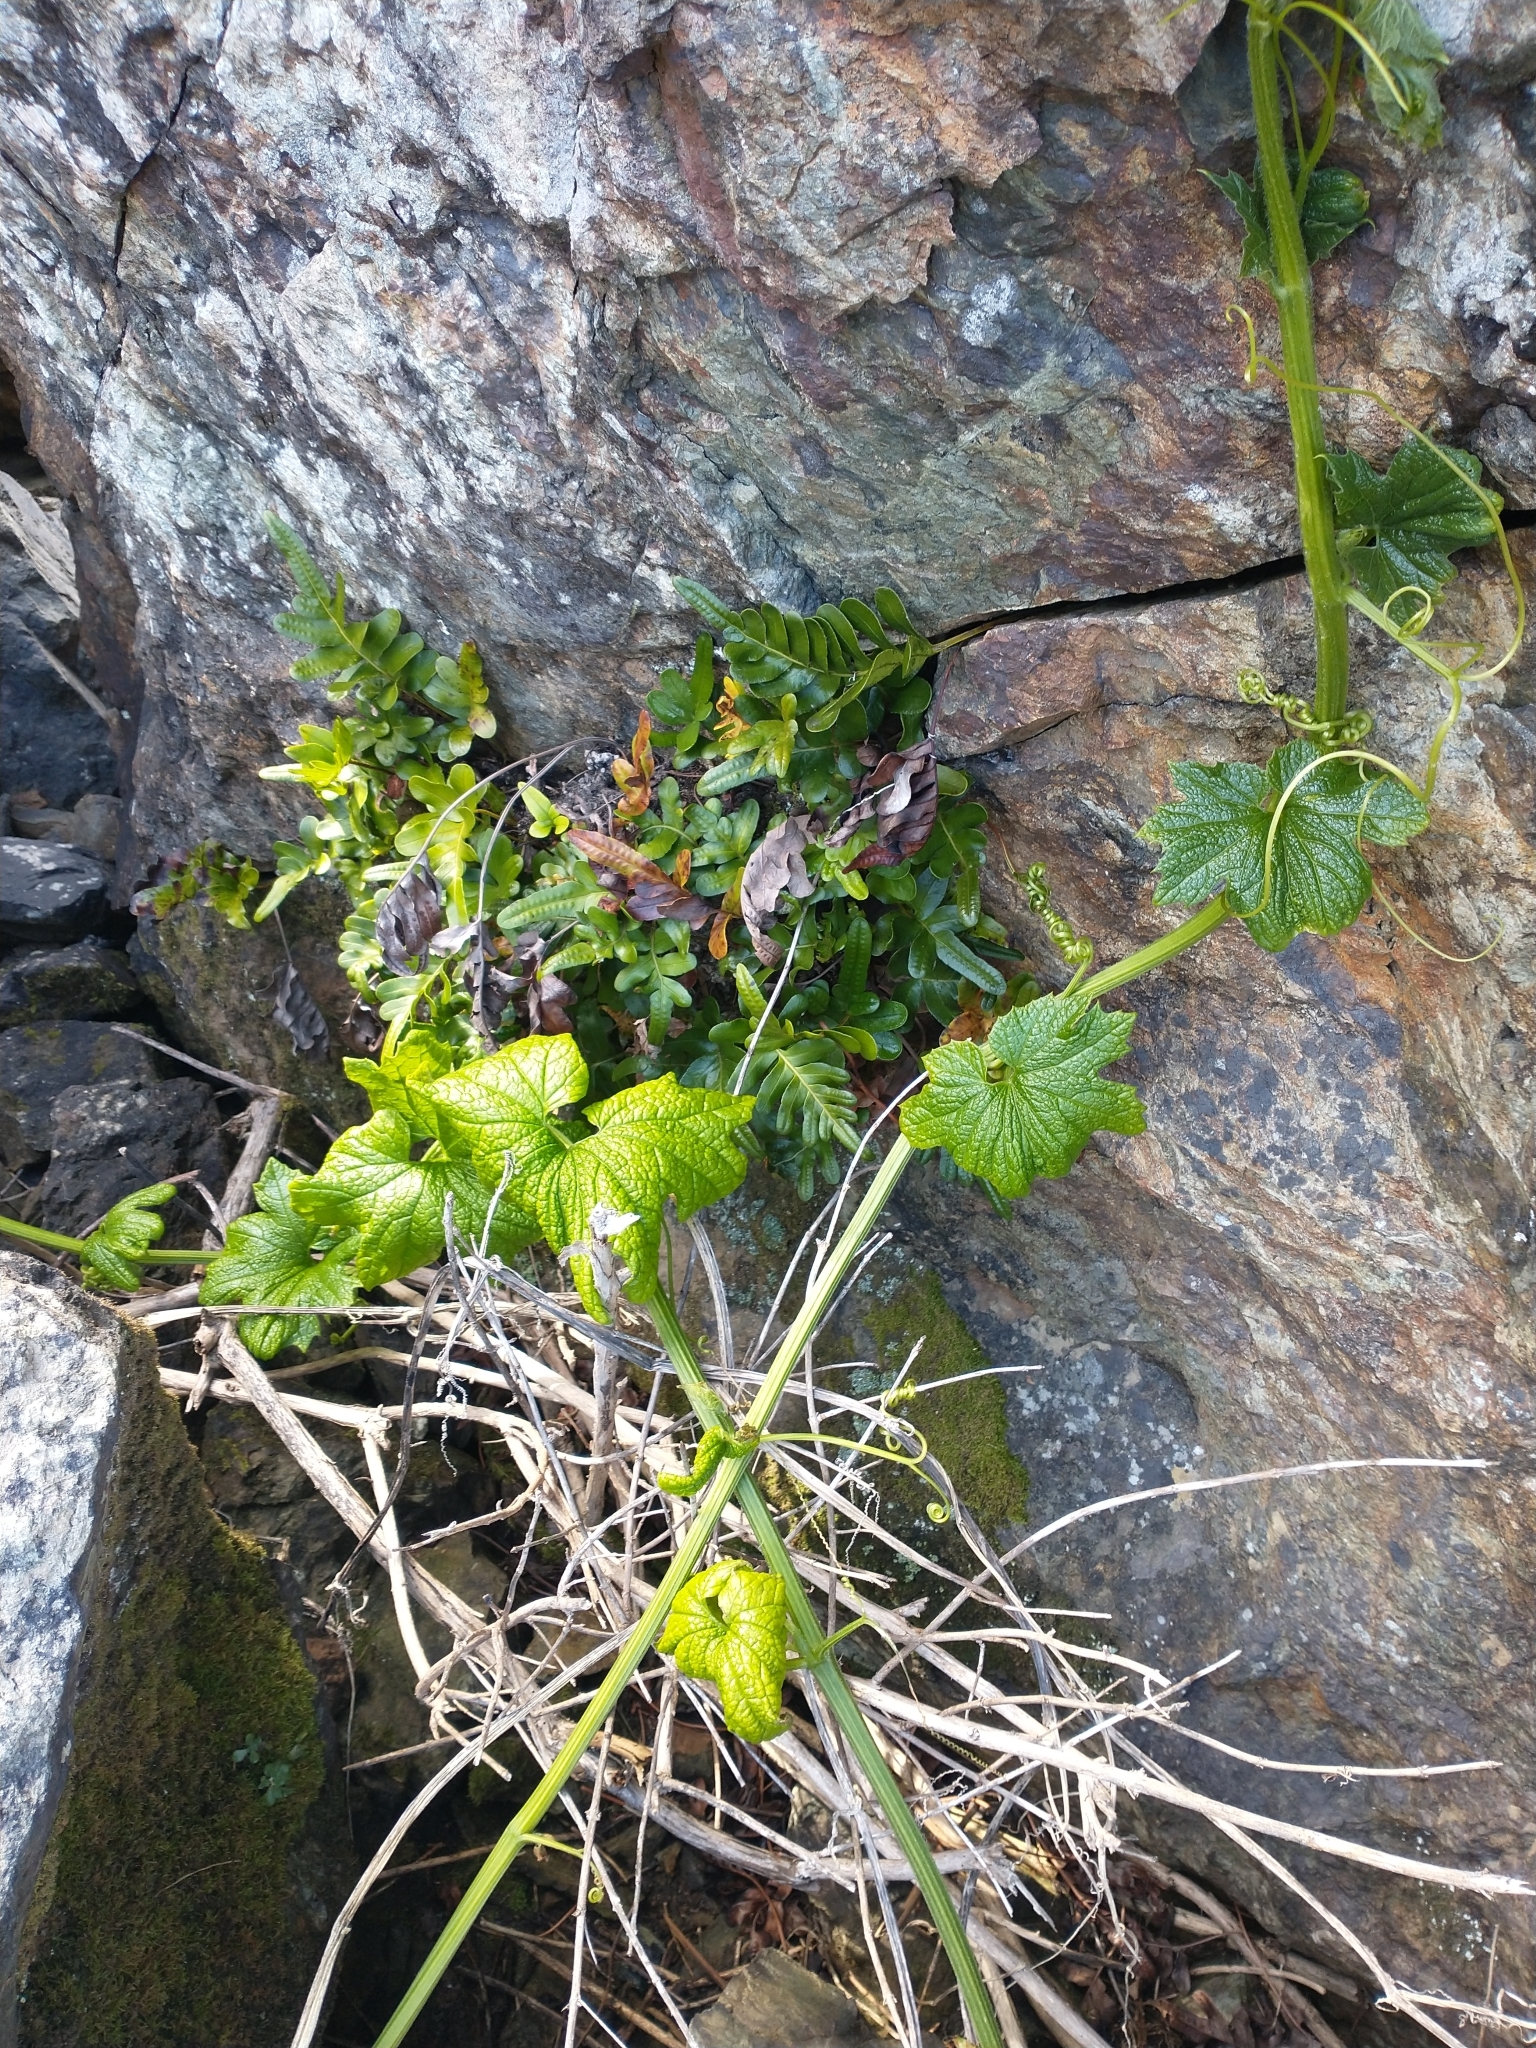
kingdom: Plantae
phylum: Tracheophyta
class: Magnoliopsida
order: Cucurbitales
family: Cucurbitaceae
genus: Marah
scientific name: Marah oregana
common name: Coastal manroot
